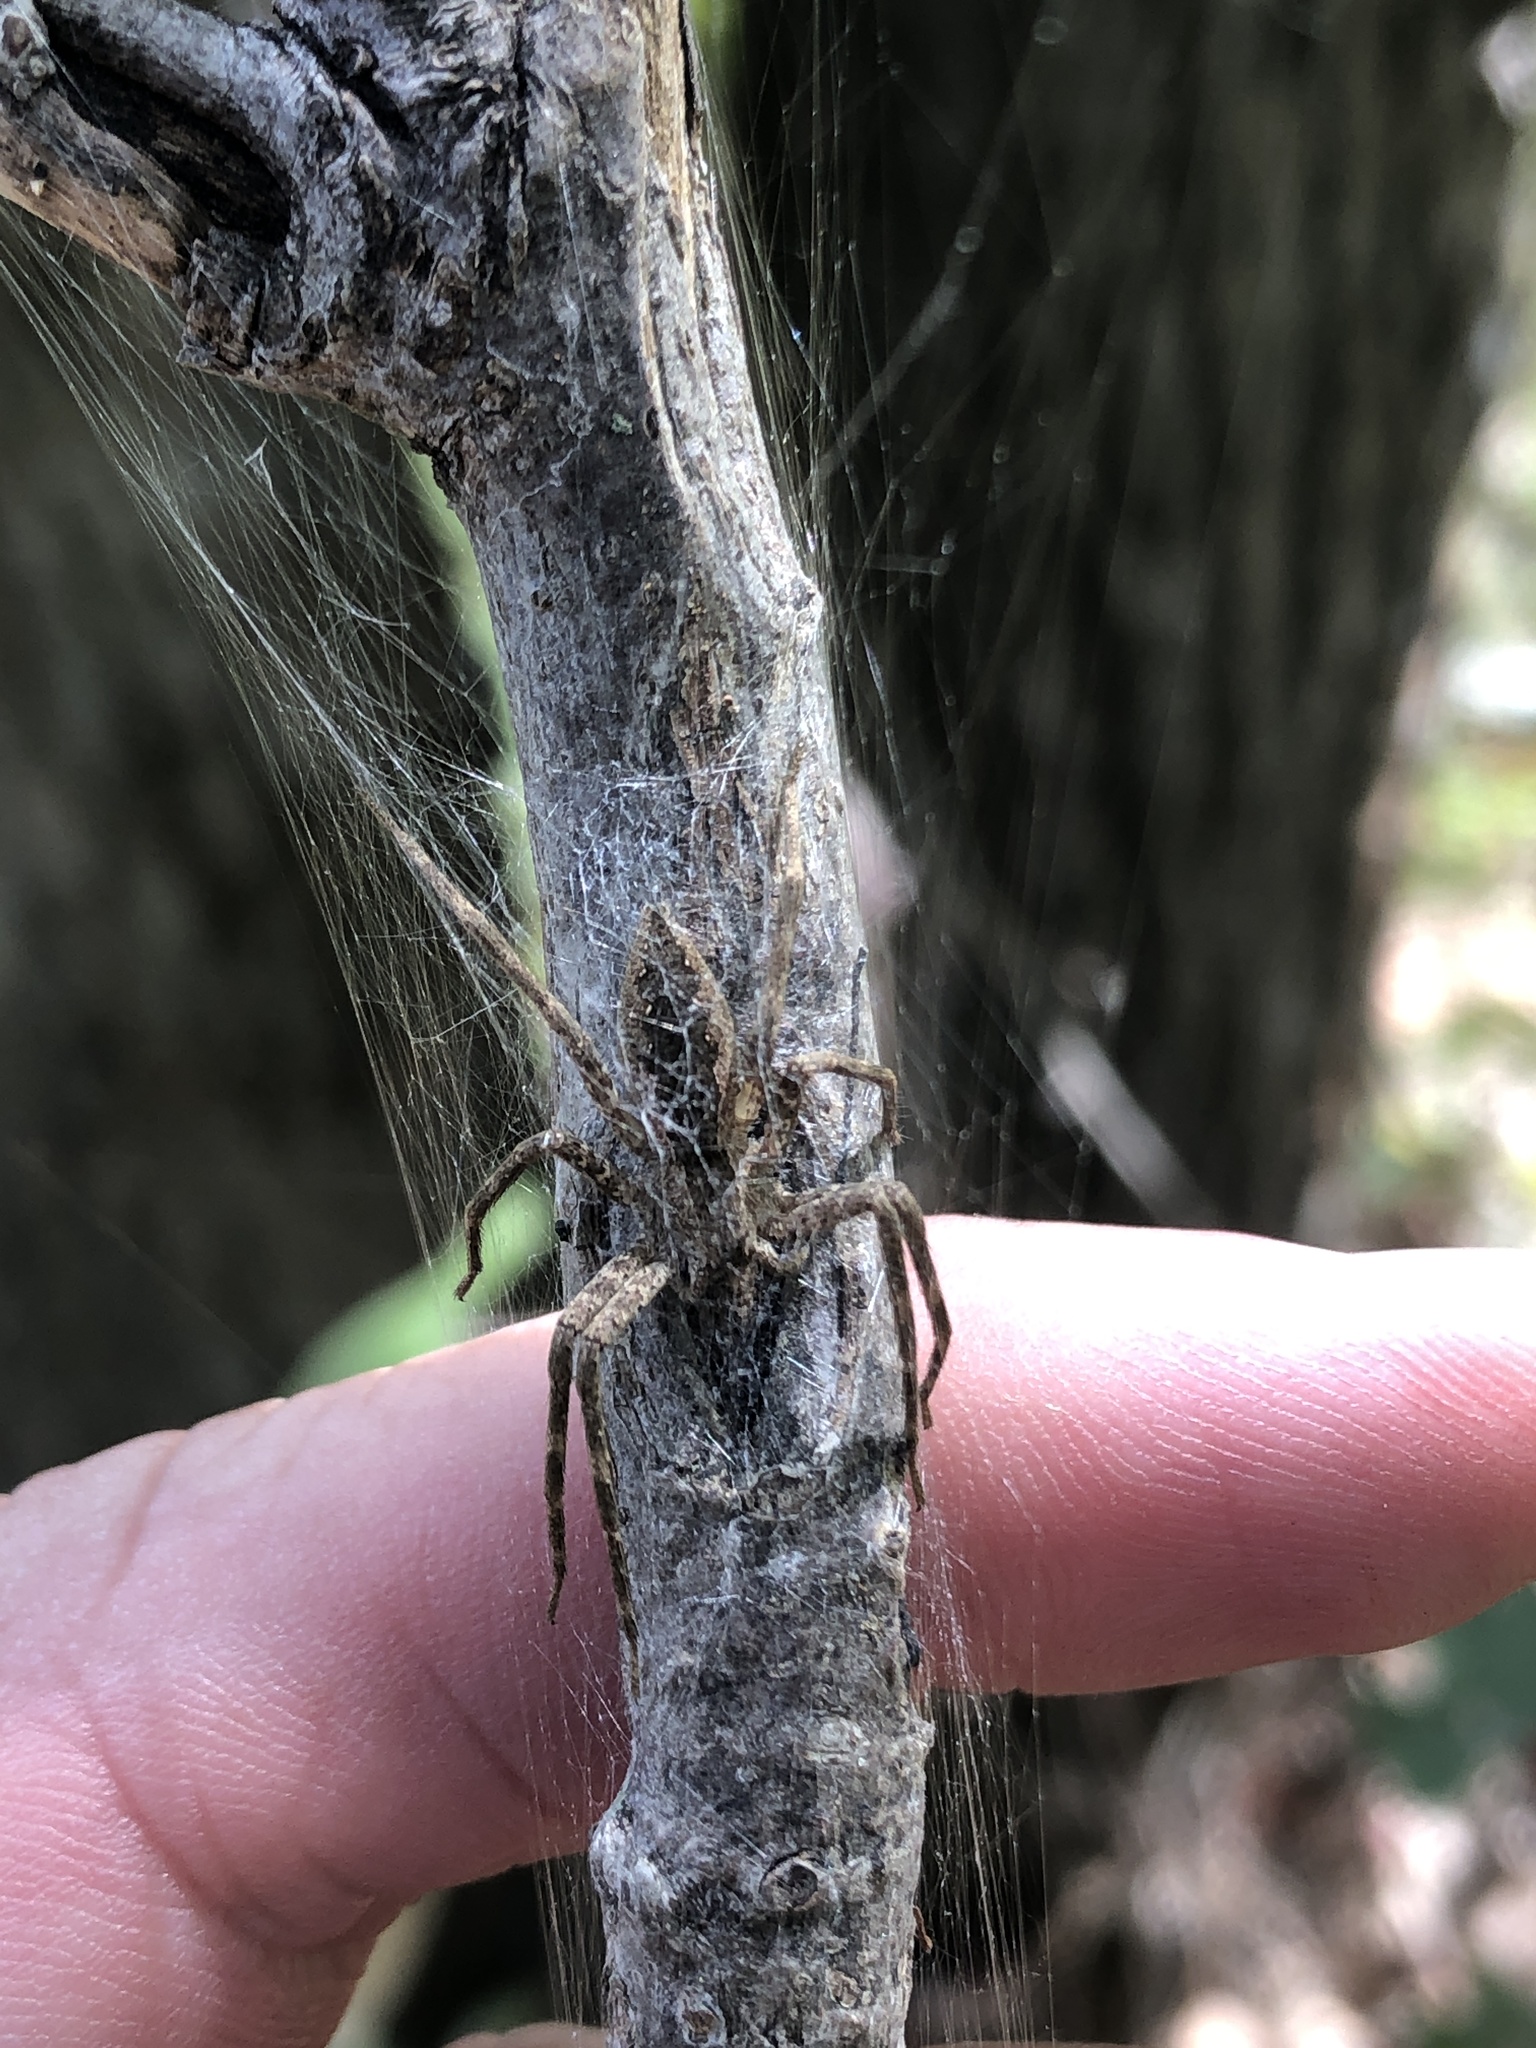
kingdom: Animalia
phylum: Arthropoda
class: Arachnida
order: Araneae
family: Pisauridae
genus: Pisaurina
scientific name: Pisaurina mira
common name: American nursery web spider
